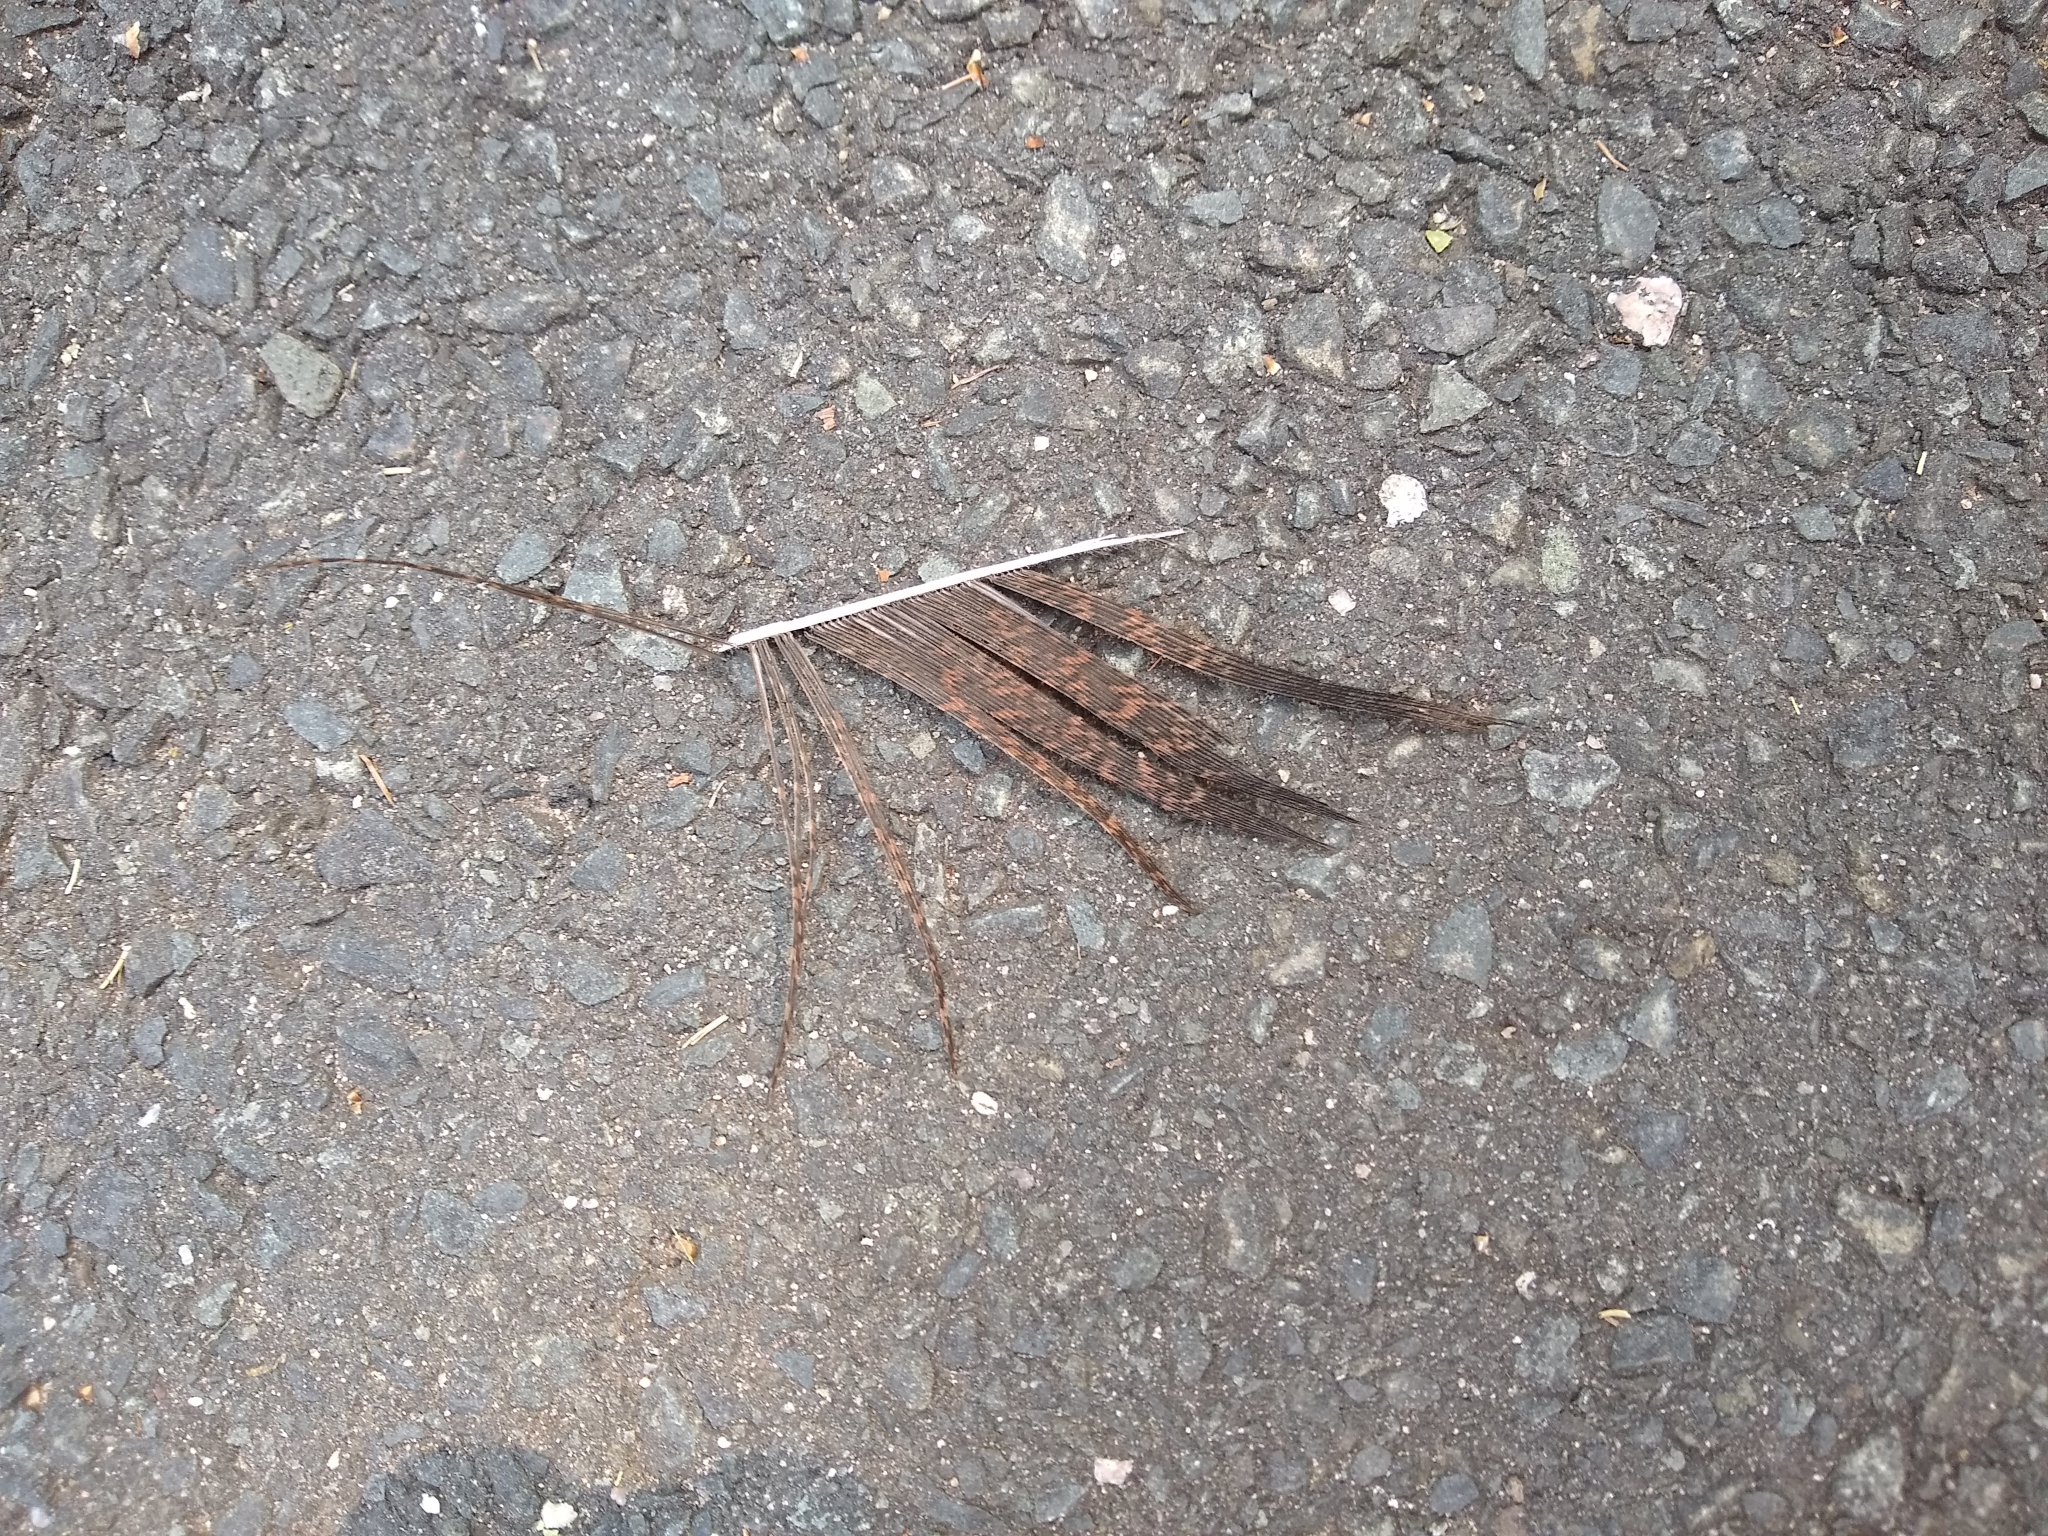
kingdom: Animalia
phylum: Chordata
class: Aves
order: Galliformes
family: Phasianidae
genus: Meleagris
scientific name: Meleagris gallopavo
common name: Wild turkey
